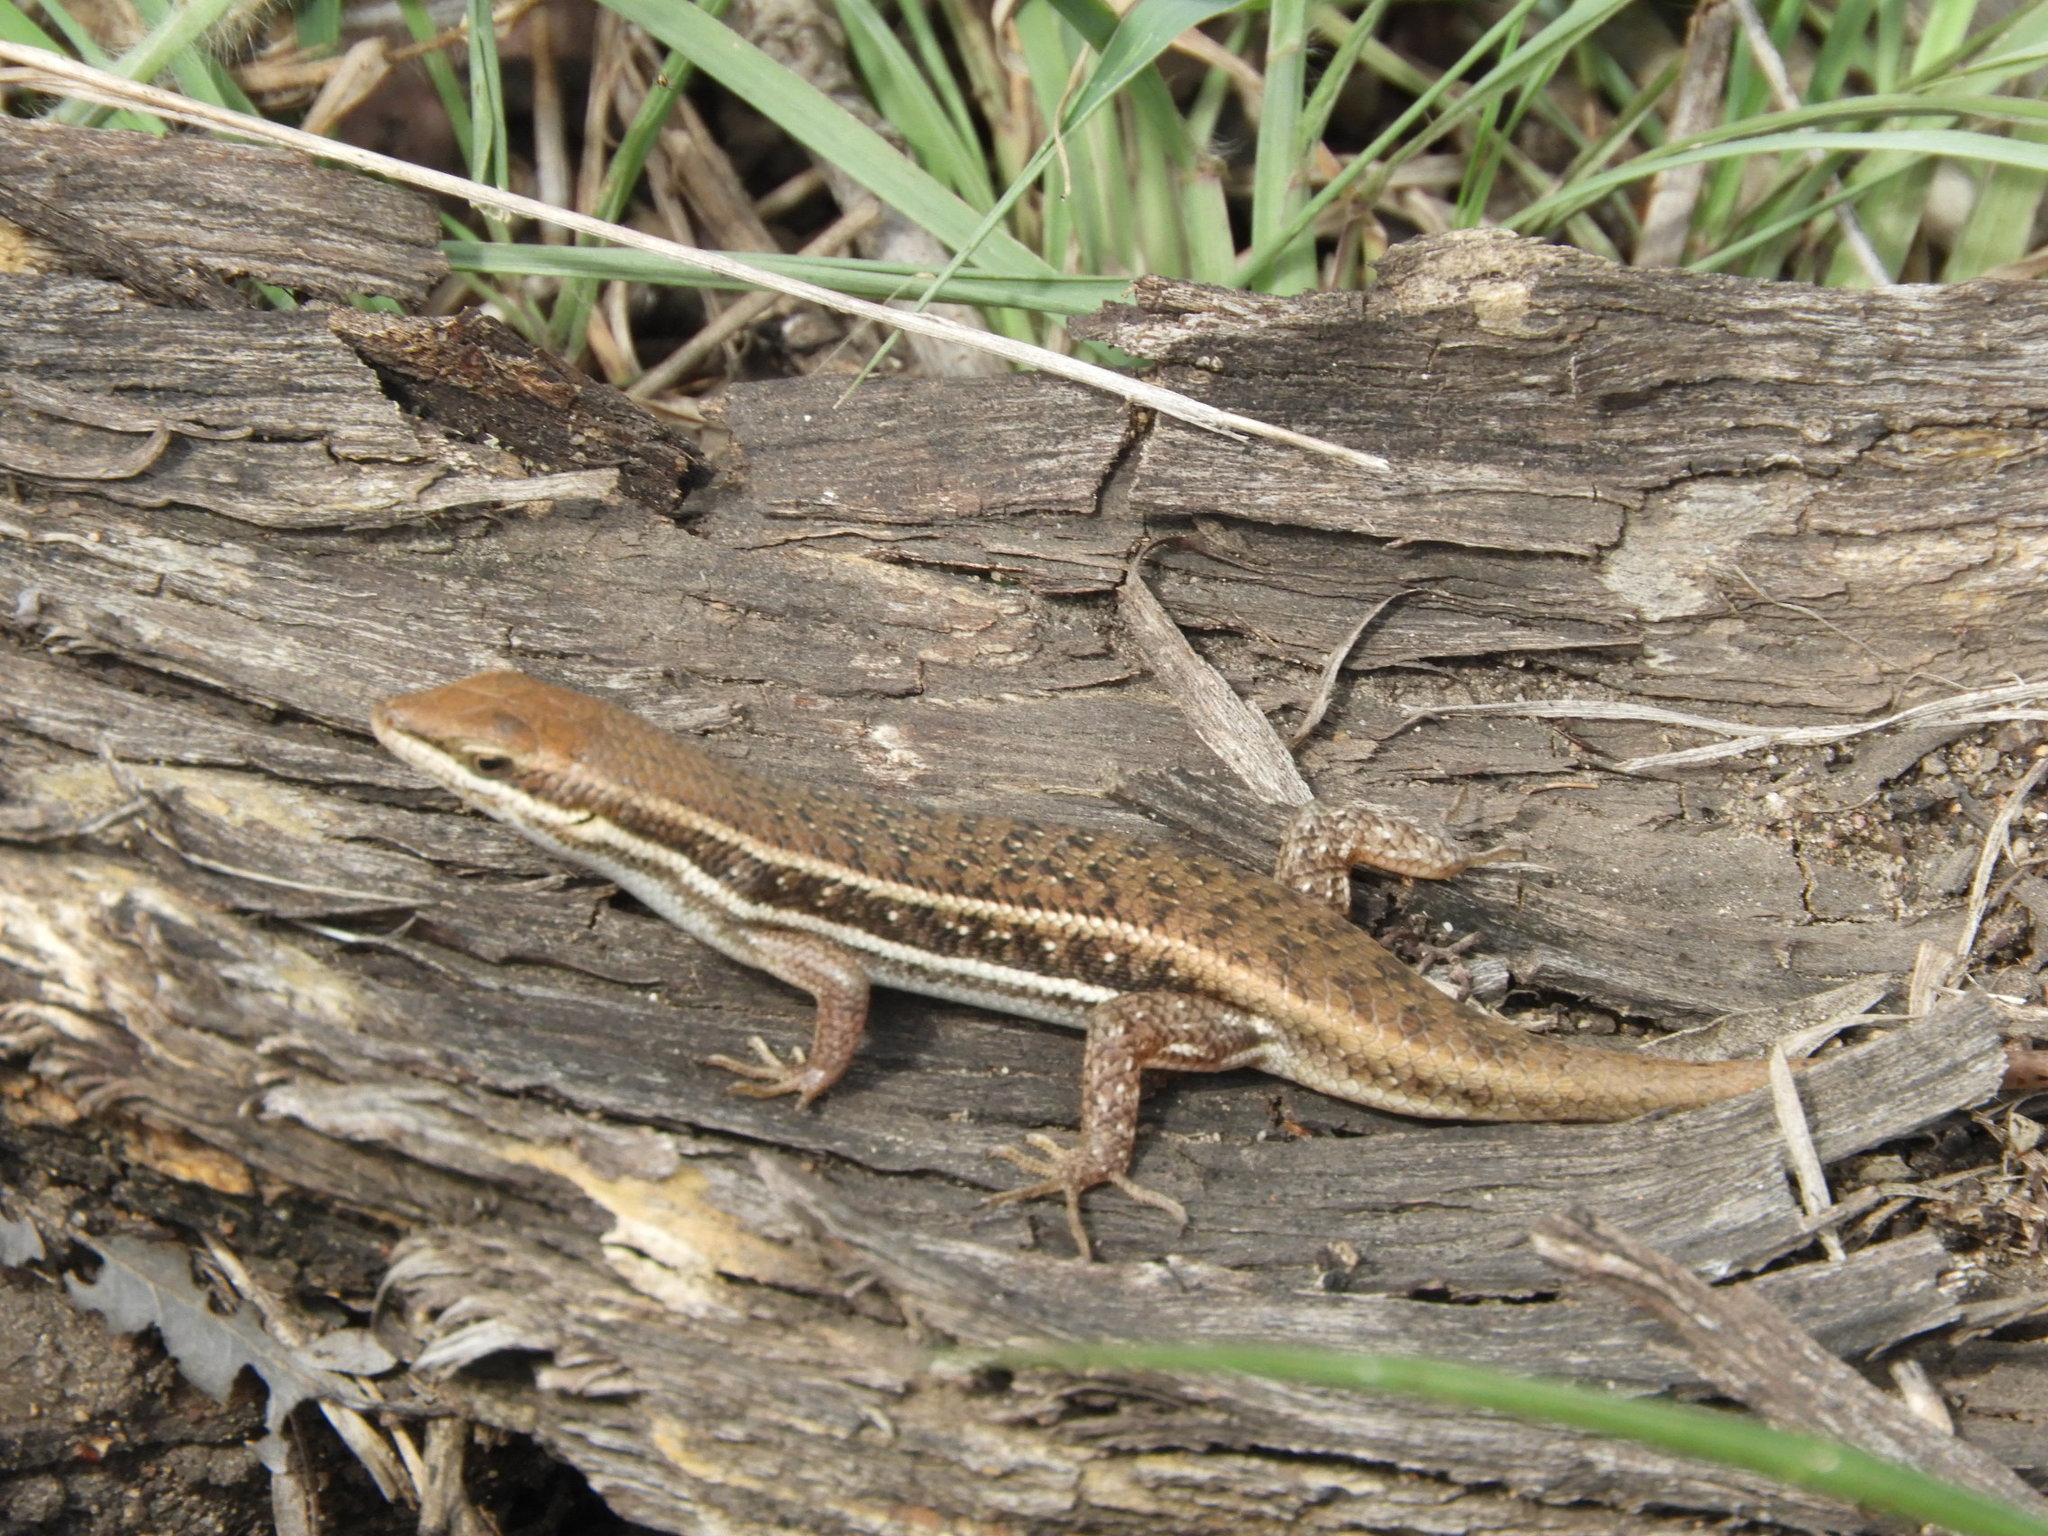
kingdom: Animalia
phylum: Chordata
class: Squamata
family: Scincidae
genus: Trachylepis
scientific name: Trachylepis damarana
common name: Damara skink
